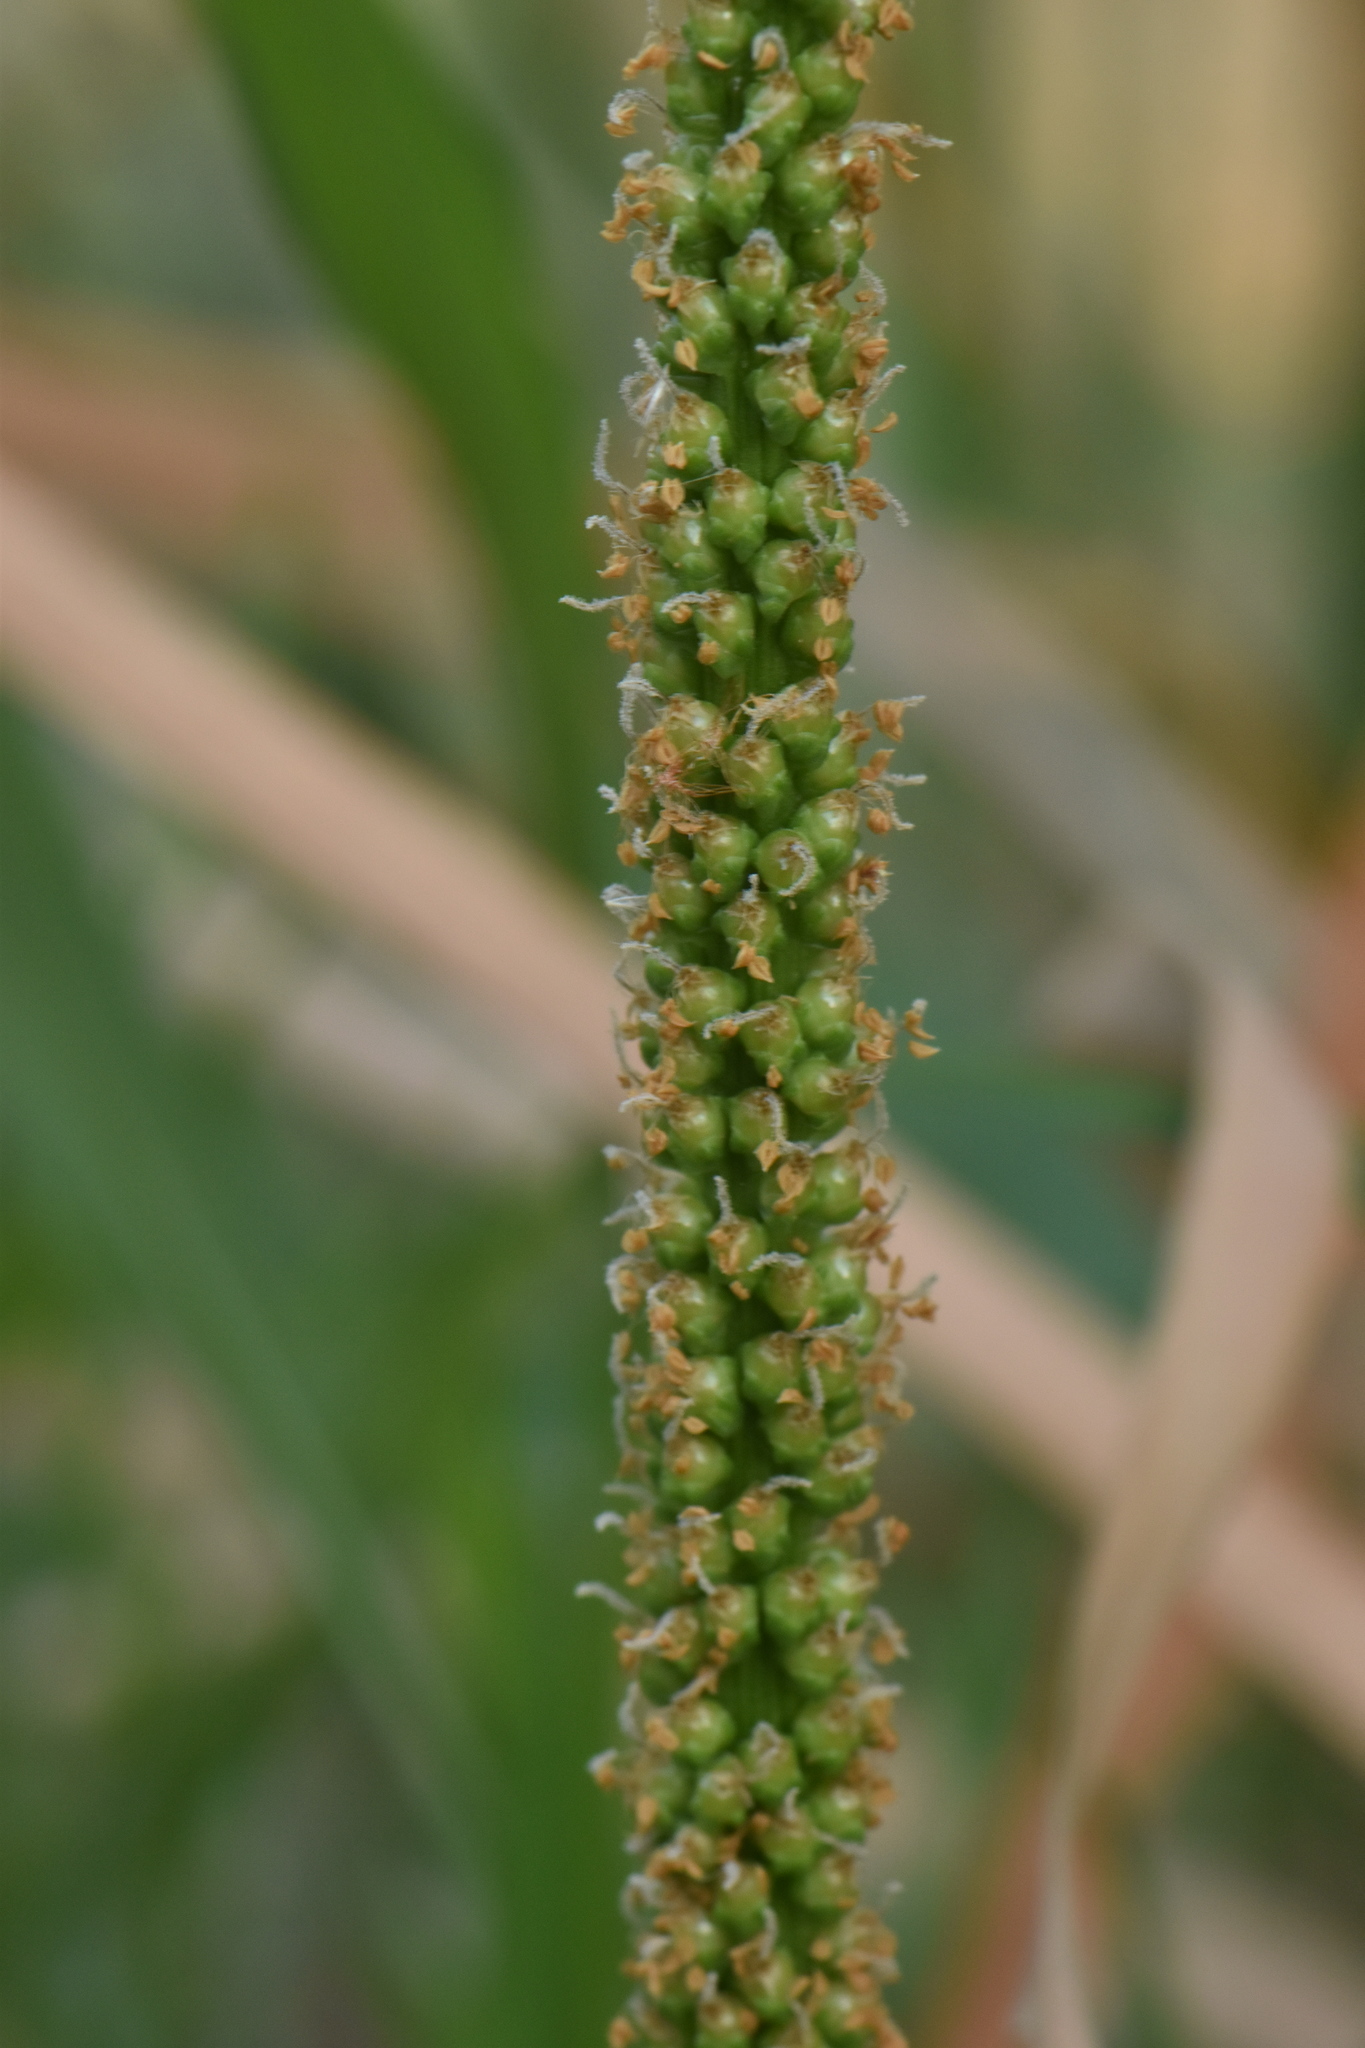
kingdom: Plantae
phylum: Tracheophyta
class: Magnoliopsida
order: Lamiales
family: Plantaginaceae
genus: Plantago
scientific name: Plantago major
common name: Common plantain
